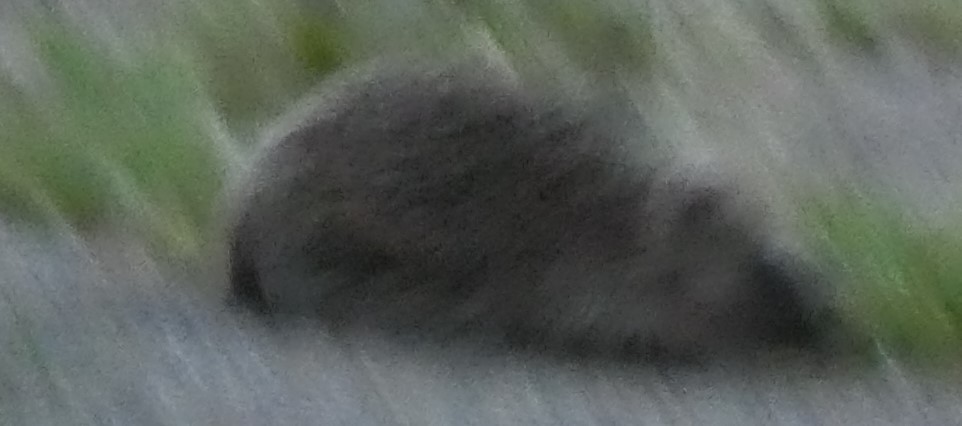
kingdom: Animalia
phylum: Chordata
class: Mammalia
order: Erinaceomorpha
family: Erinaceidae
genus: Erinaceus
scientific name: Erinaceus europaeus
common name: West european hedgehog
